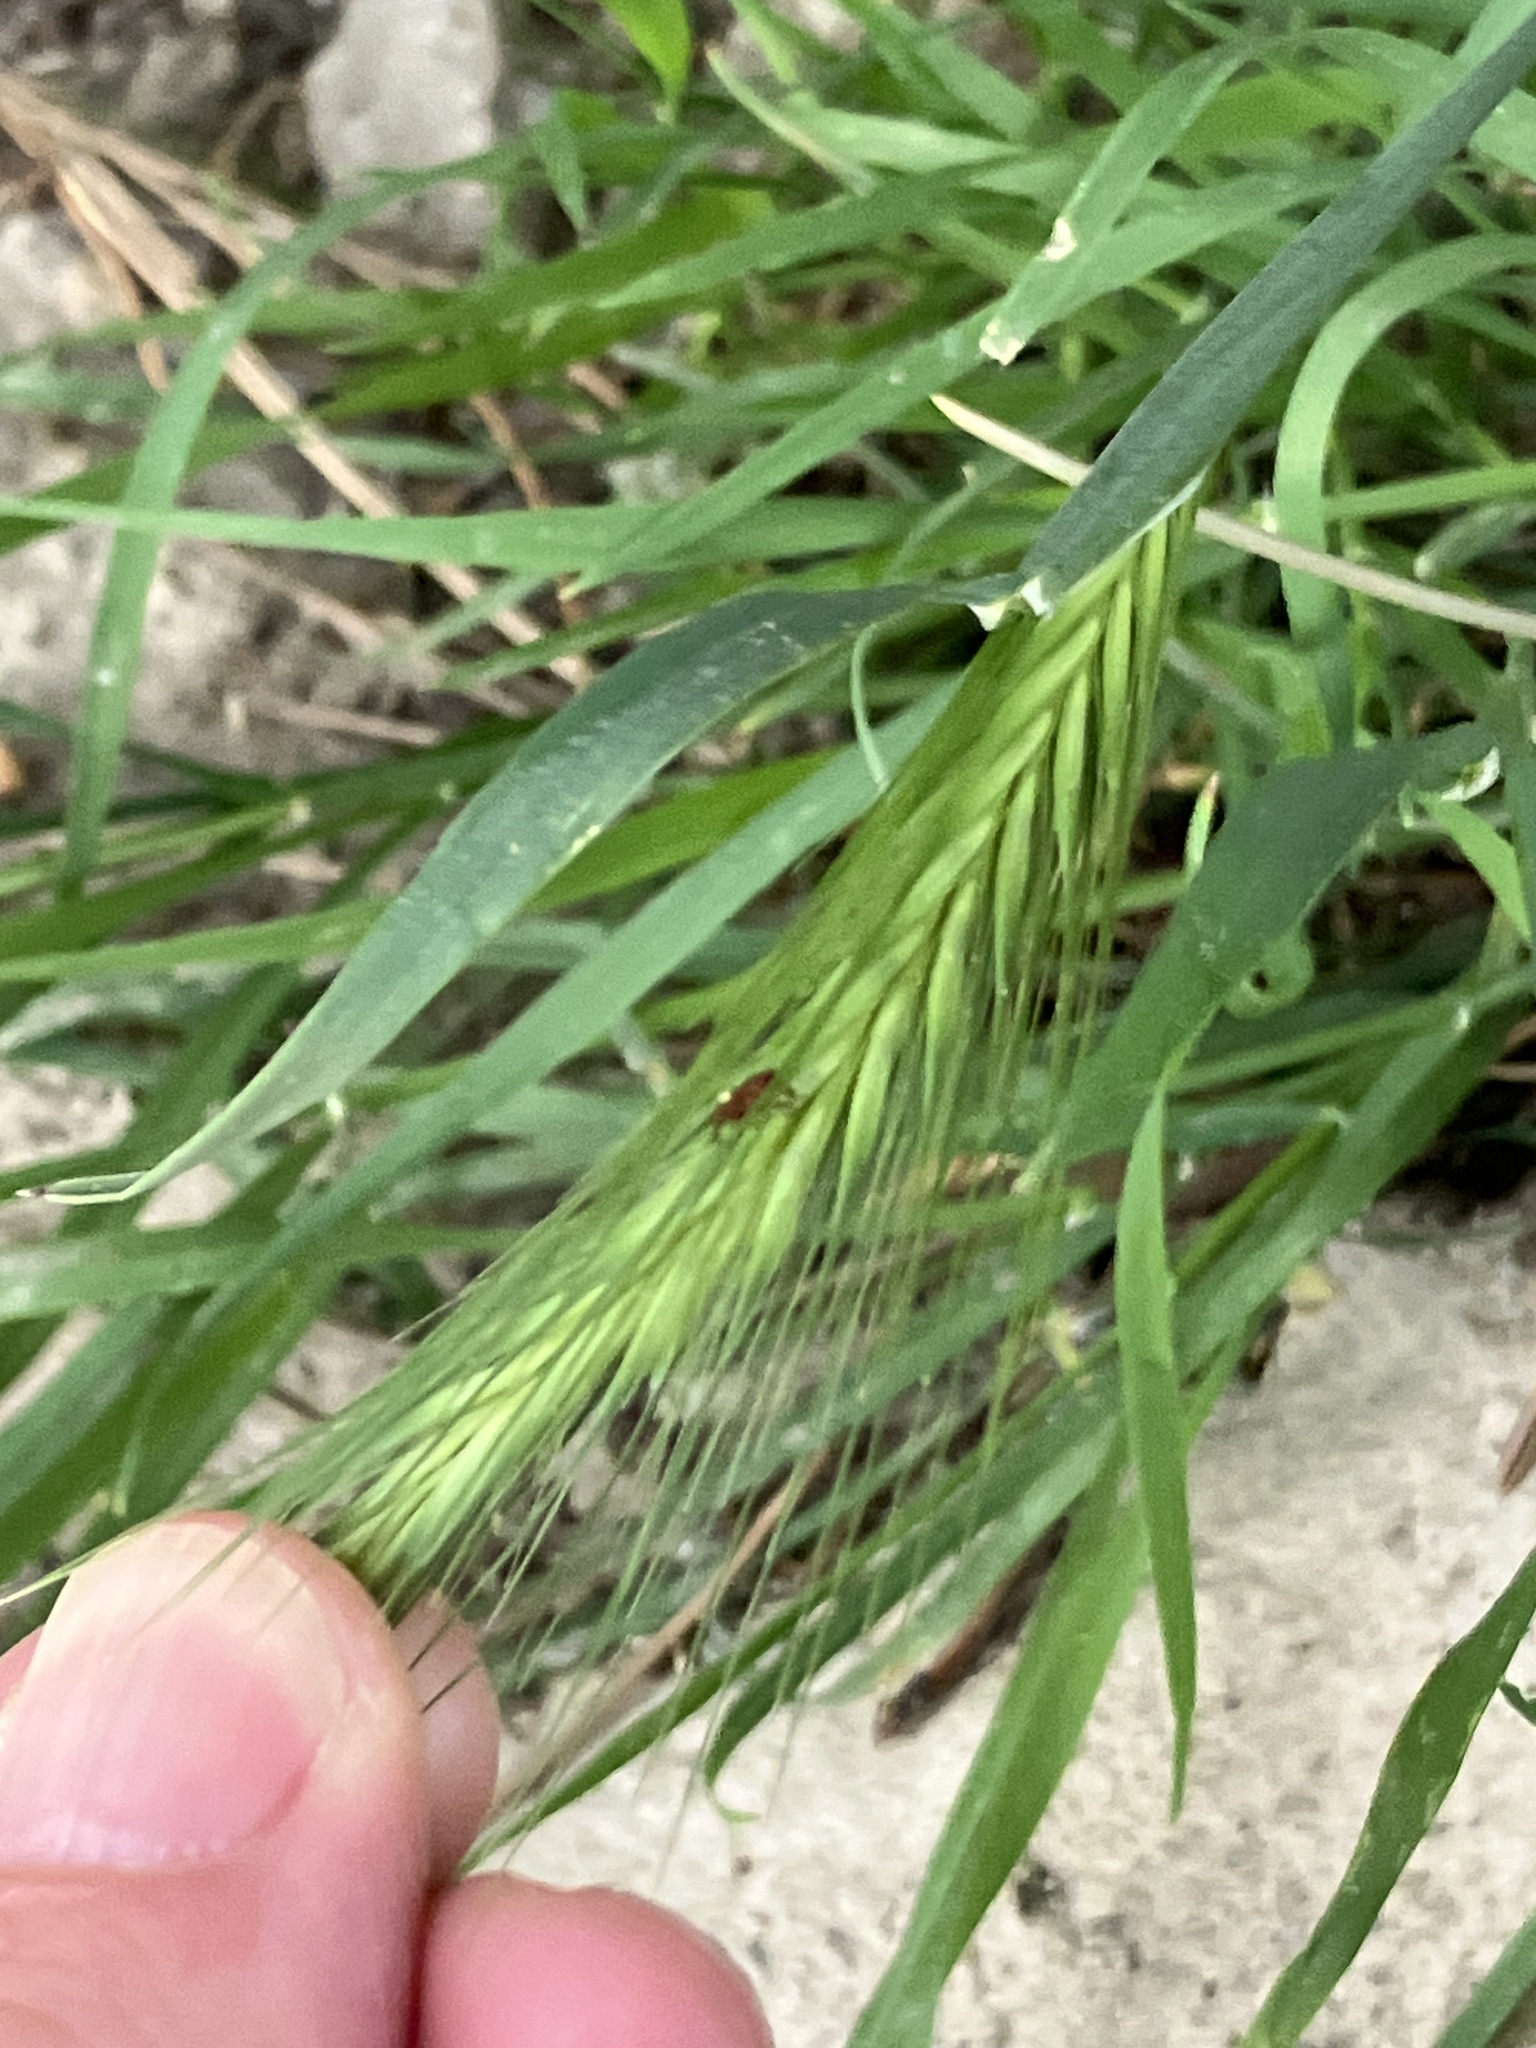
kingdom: Plantae
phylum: Tracheophyta
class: Liliopsida
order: Poales
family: Poaceae
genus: Hordeum
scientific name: Hordeum murinum
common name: Wall barley
